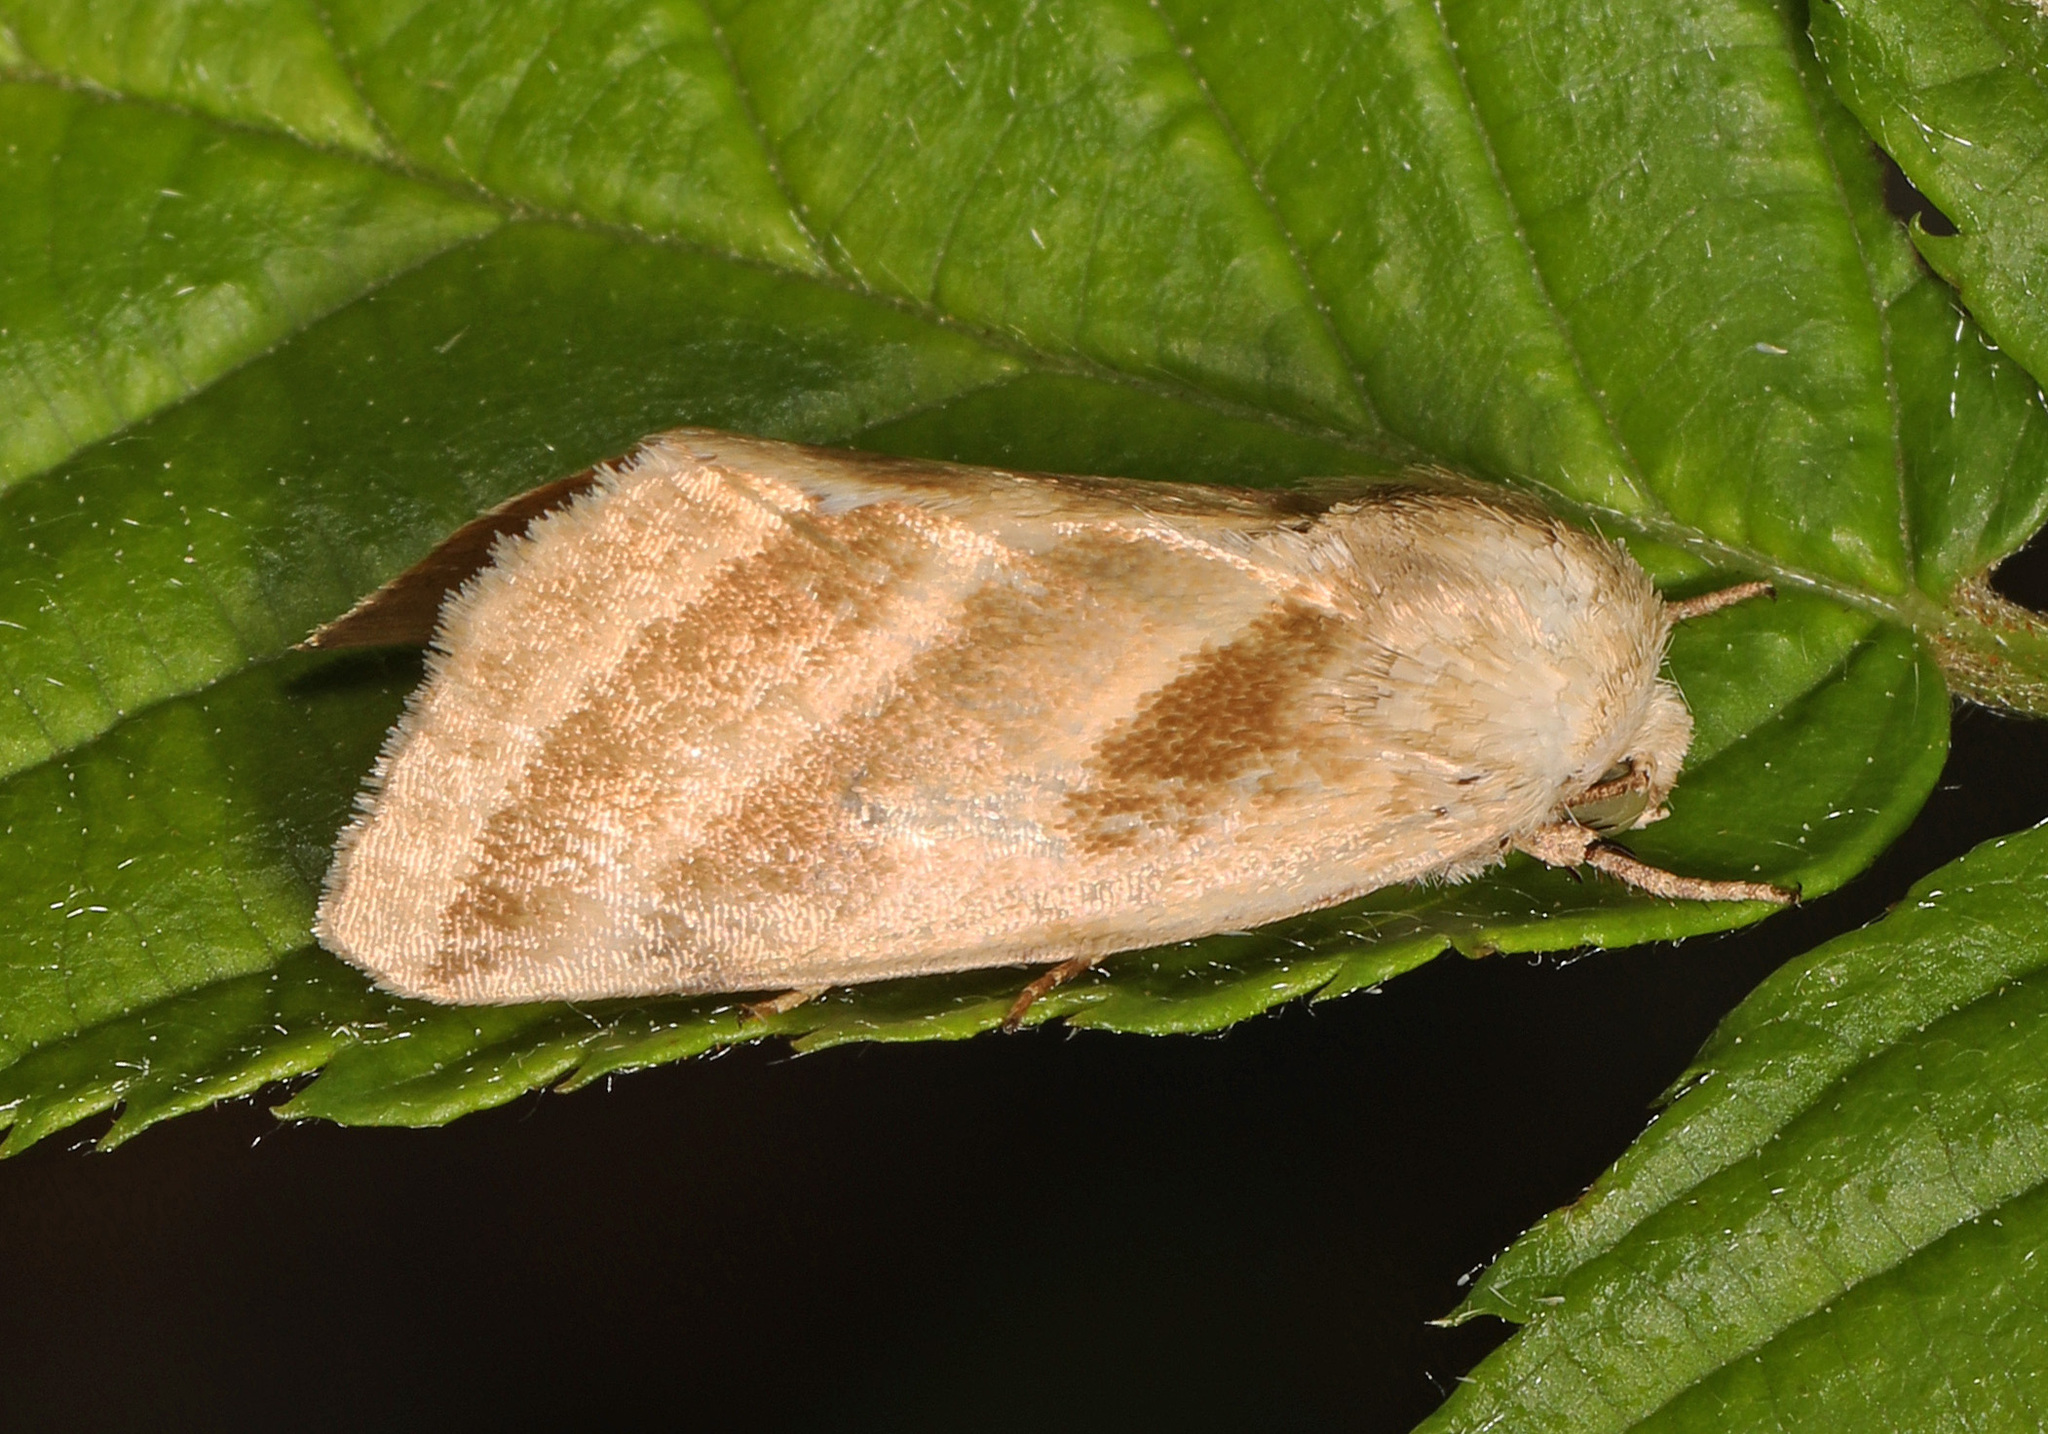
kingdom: Animalia
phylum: Arthropoda
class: Insecta
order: Lepidoptera
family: Noctuidae
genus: Schinia
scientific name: Schinia trifascia
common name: Three-lined flower moth
